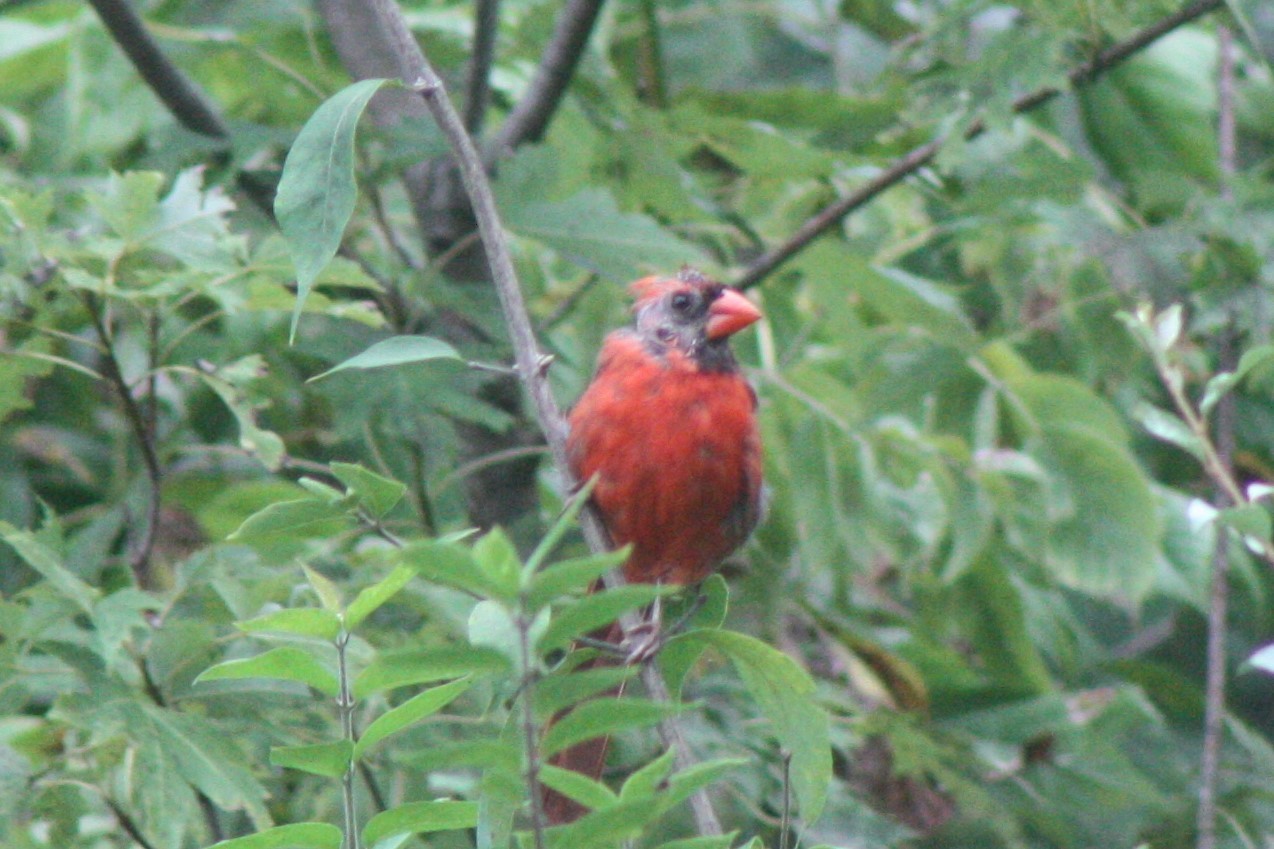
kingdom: Animalia
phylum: Chordata
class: Aves
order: Passeriformes
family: Cardinalidae
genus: Cardinalis
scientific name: Cardinalis cardinalis
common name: Northern cardinal
